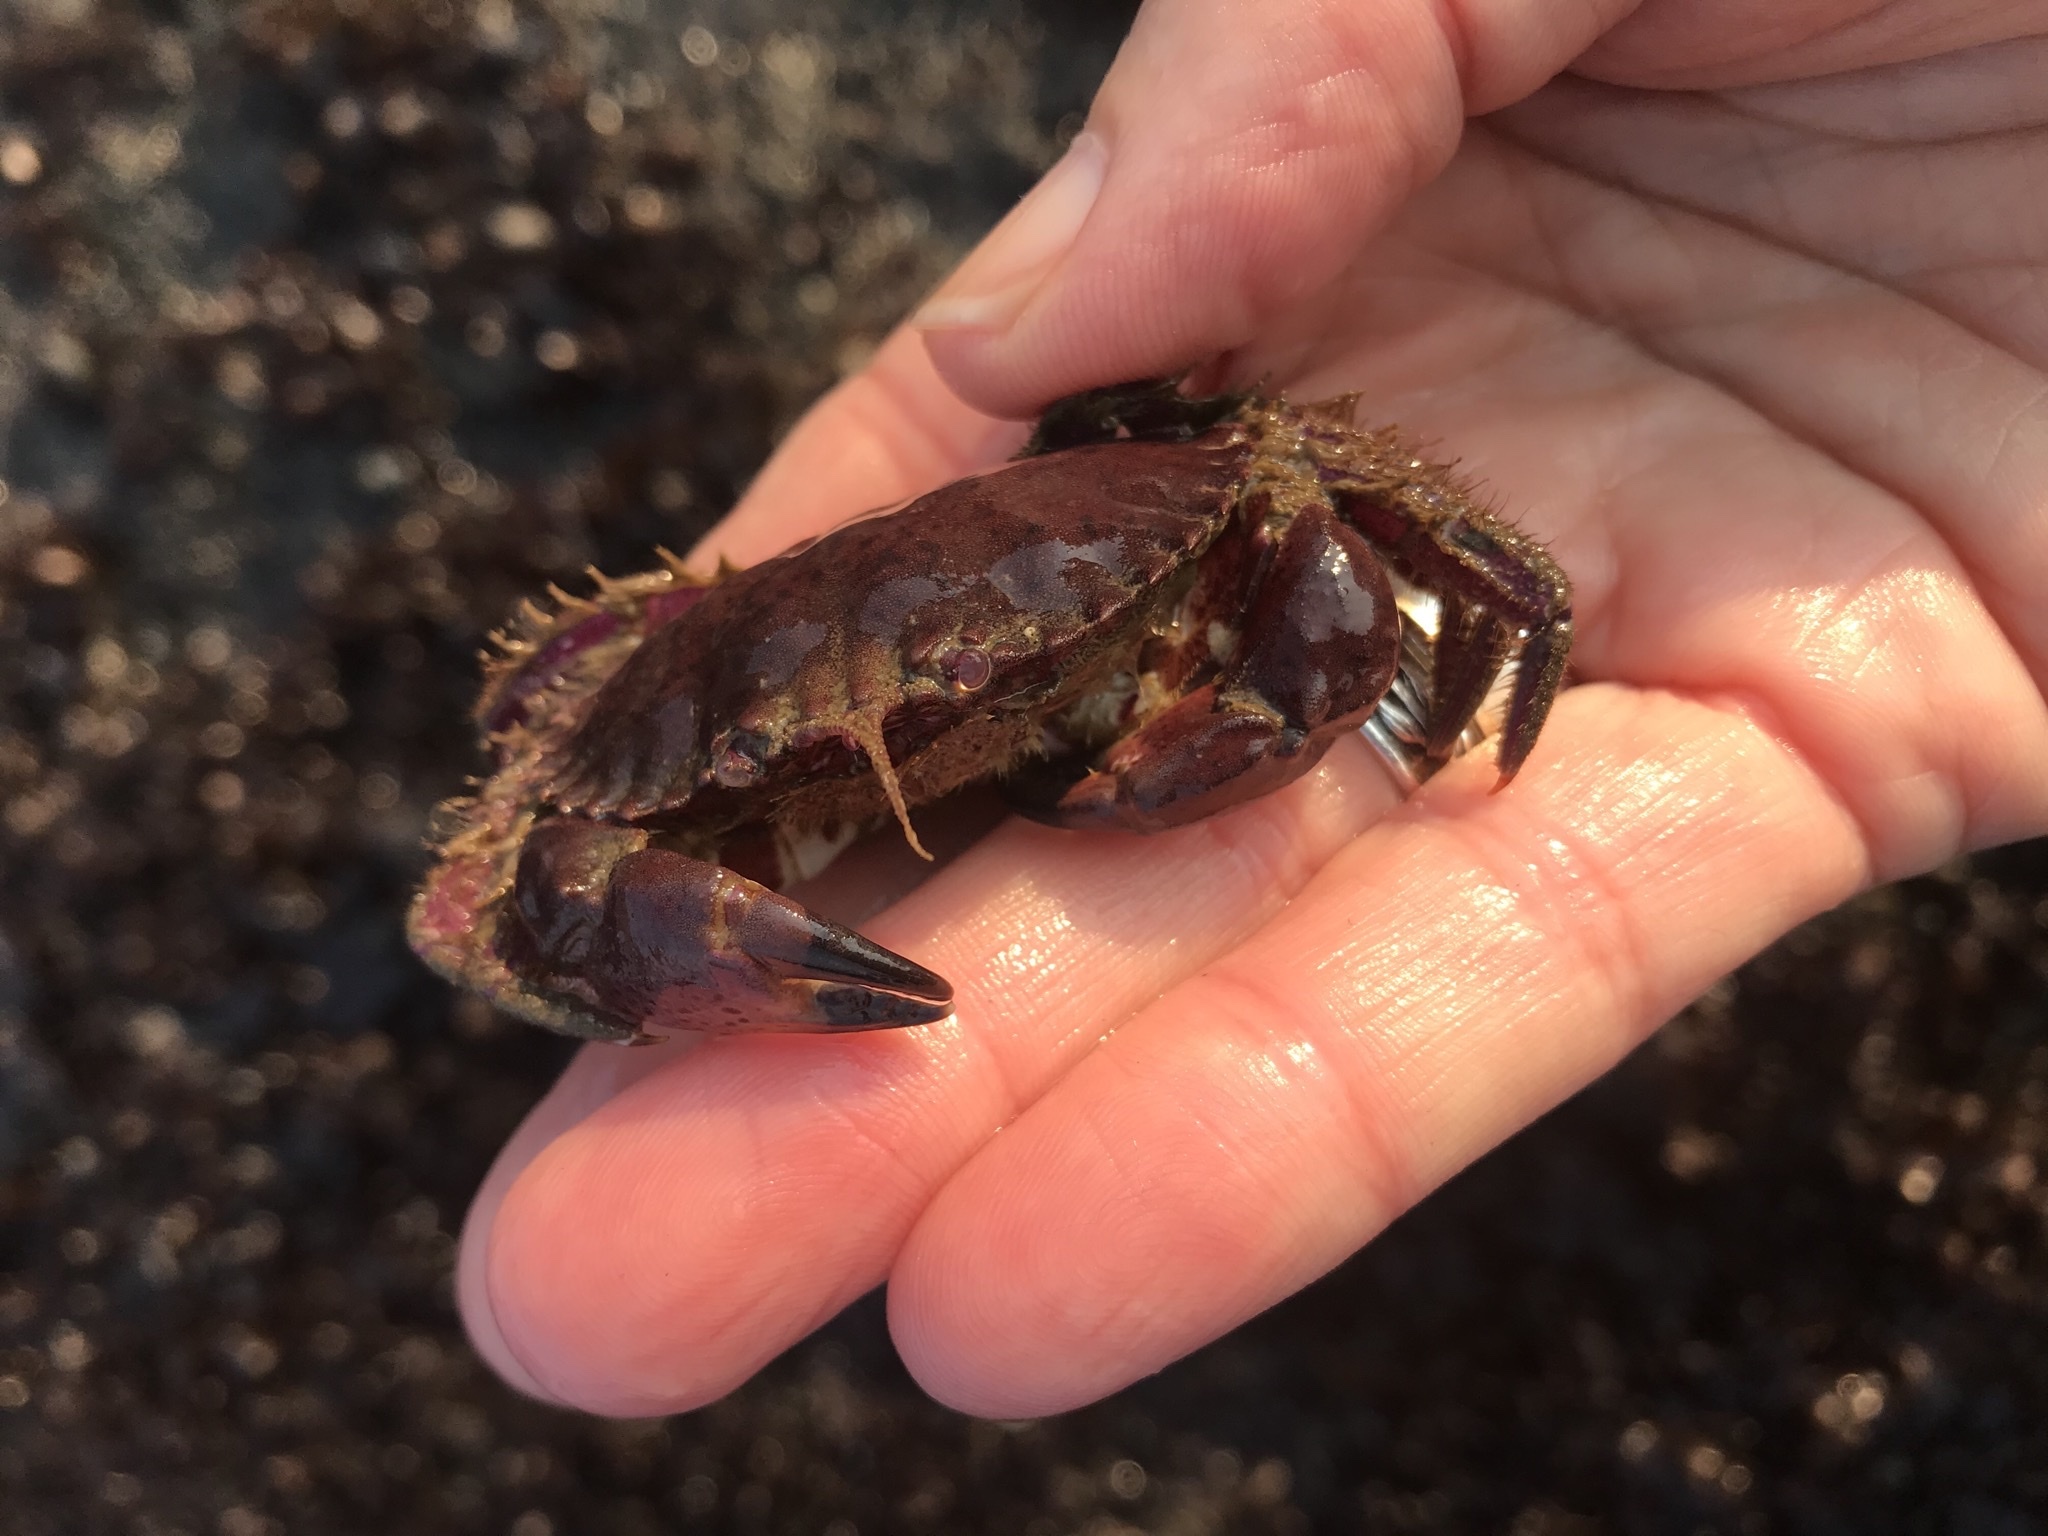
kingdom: Animalia
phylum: Arthropoda
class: Malacostraca
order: Decapoda
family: Cancridae
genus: Romaleon
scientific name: Romaleon antennarium
